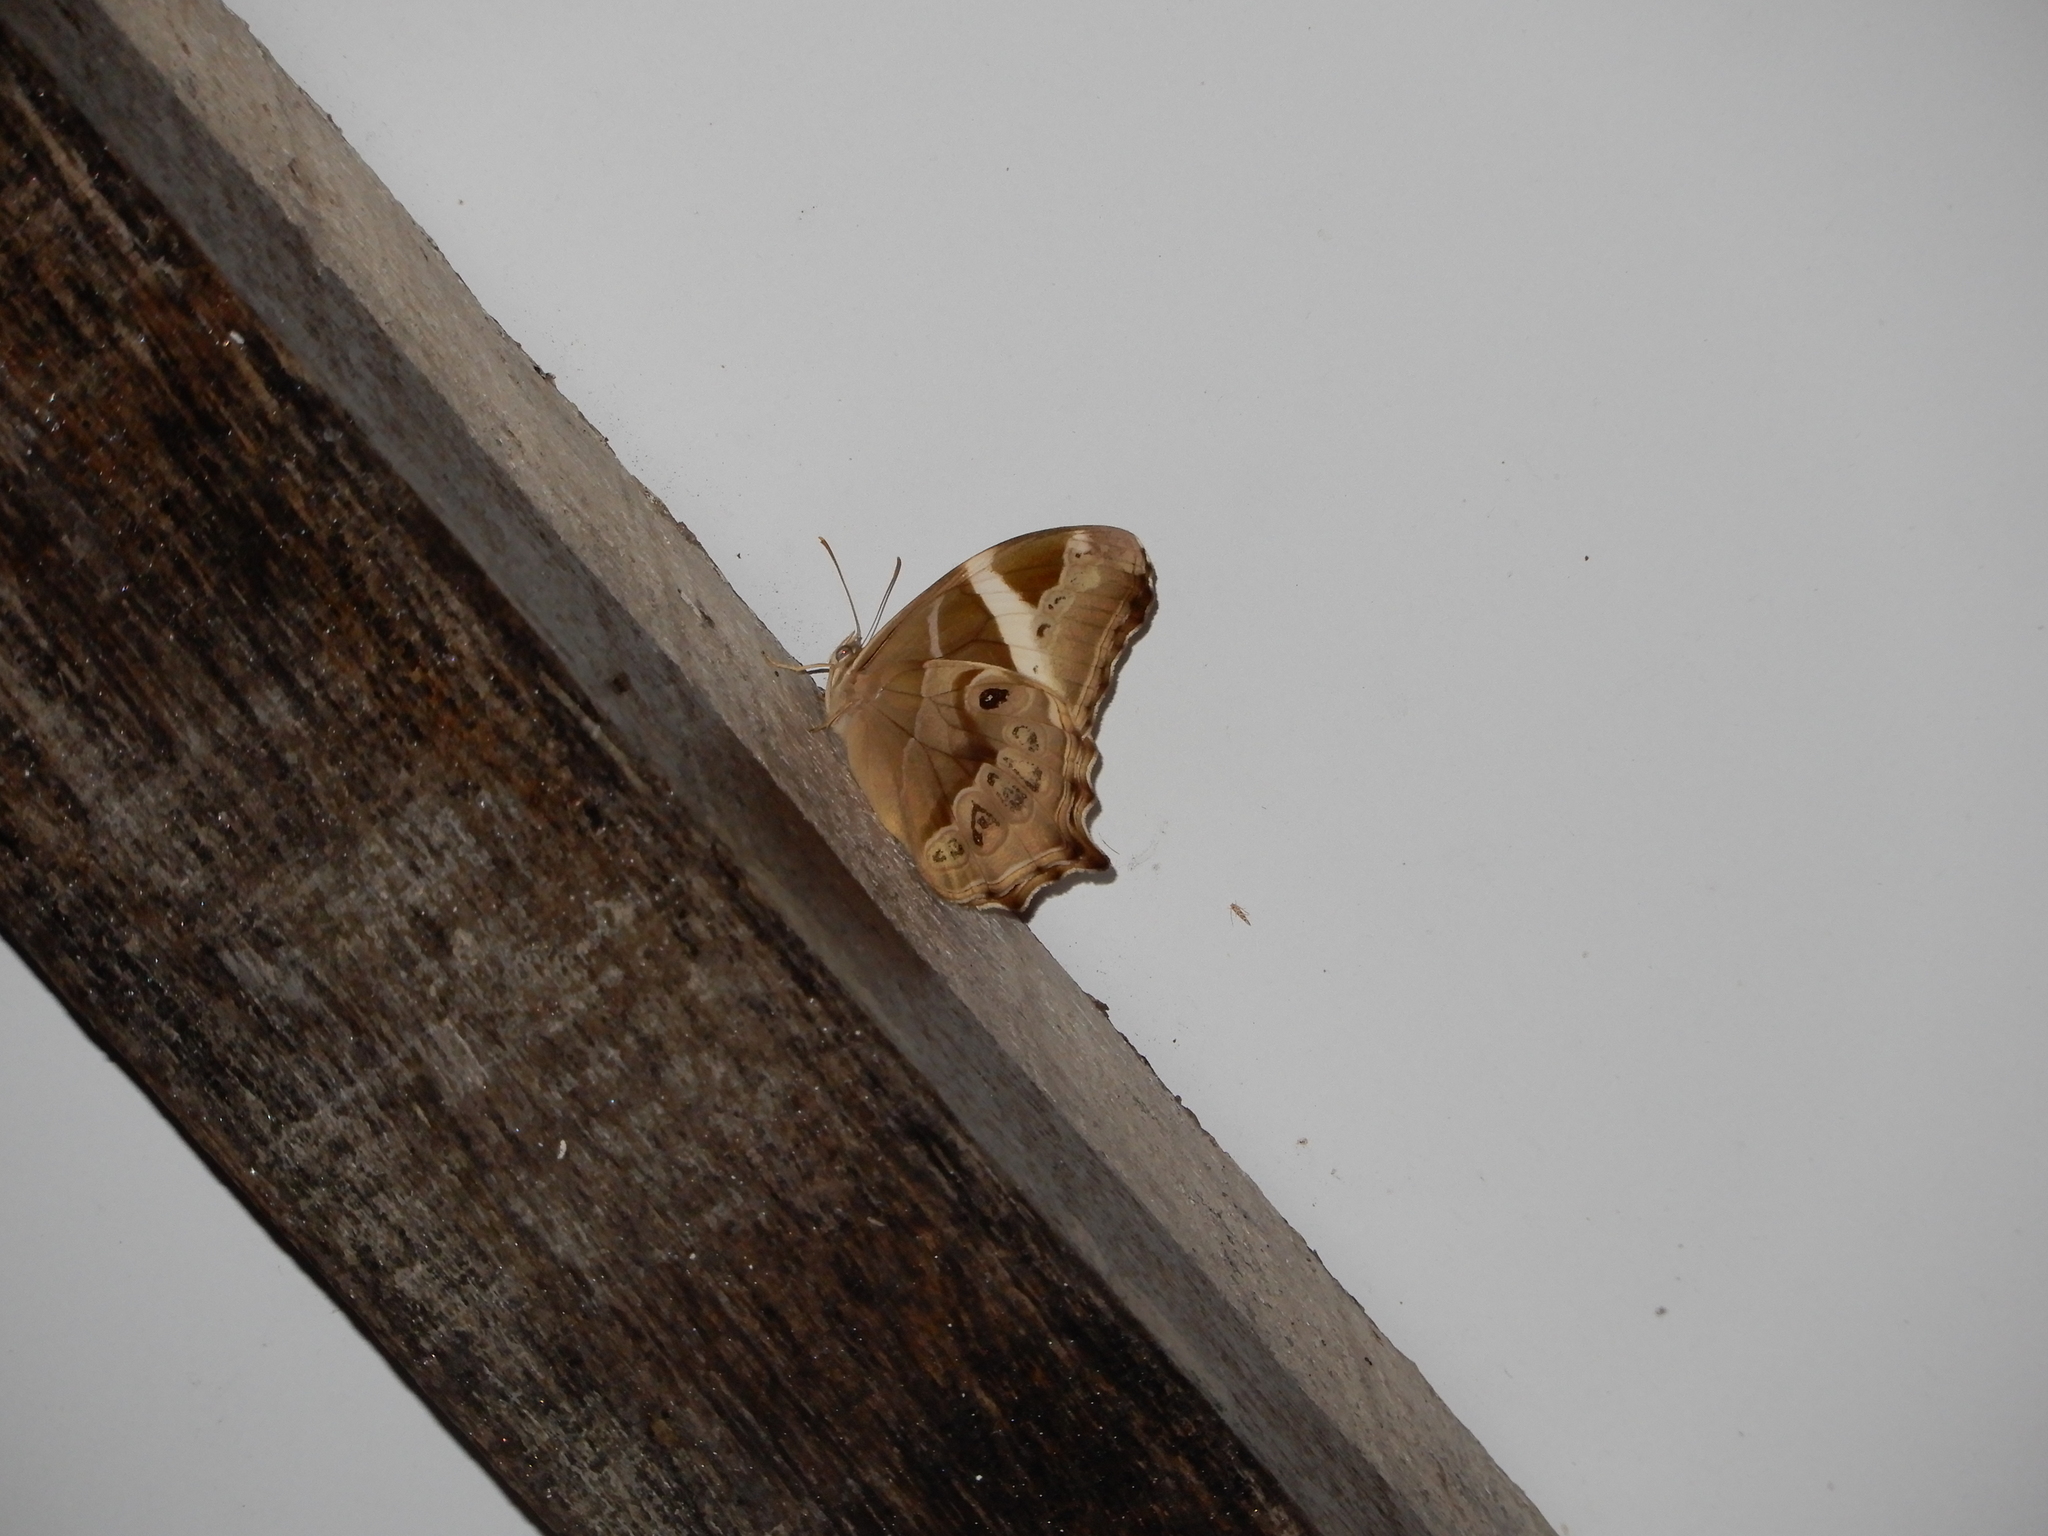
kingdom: Animalia
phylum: Arthropoda
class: Insecta
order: Lepidoptera
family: Nymphalidae
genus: Lethe
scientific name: Lethe europa
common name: Bamboo treebrown
